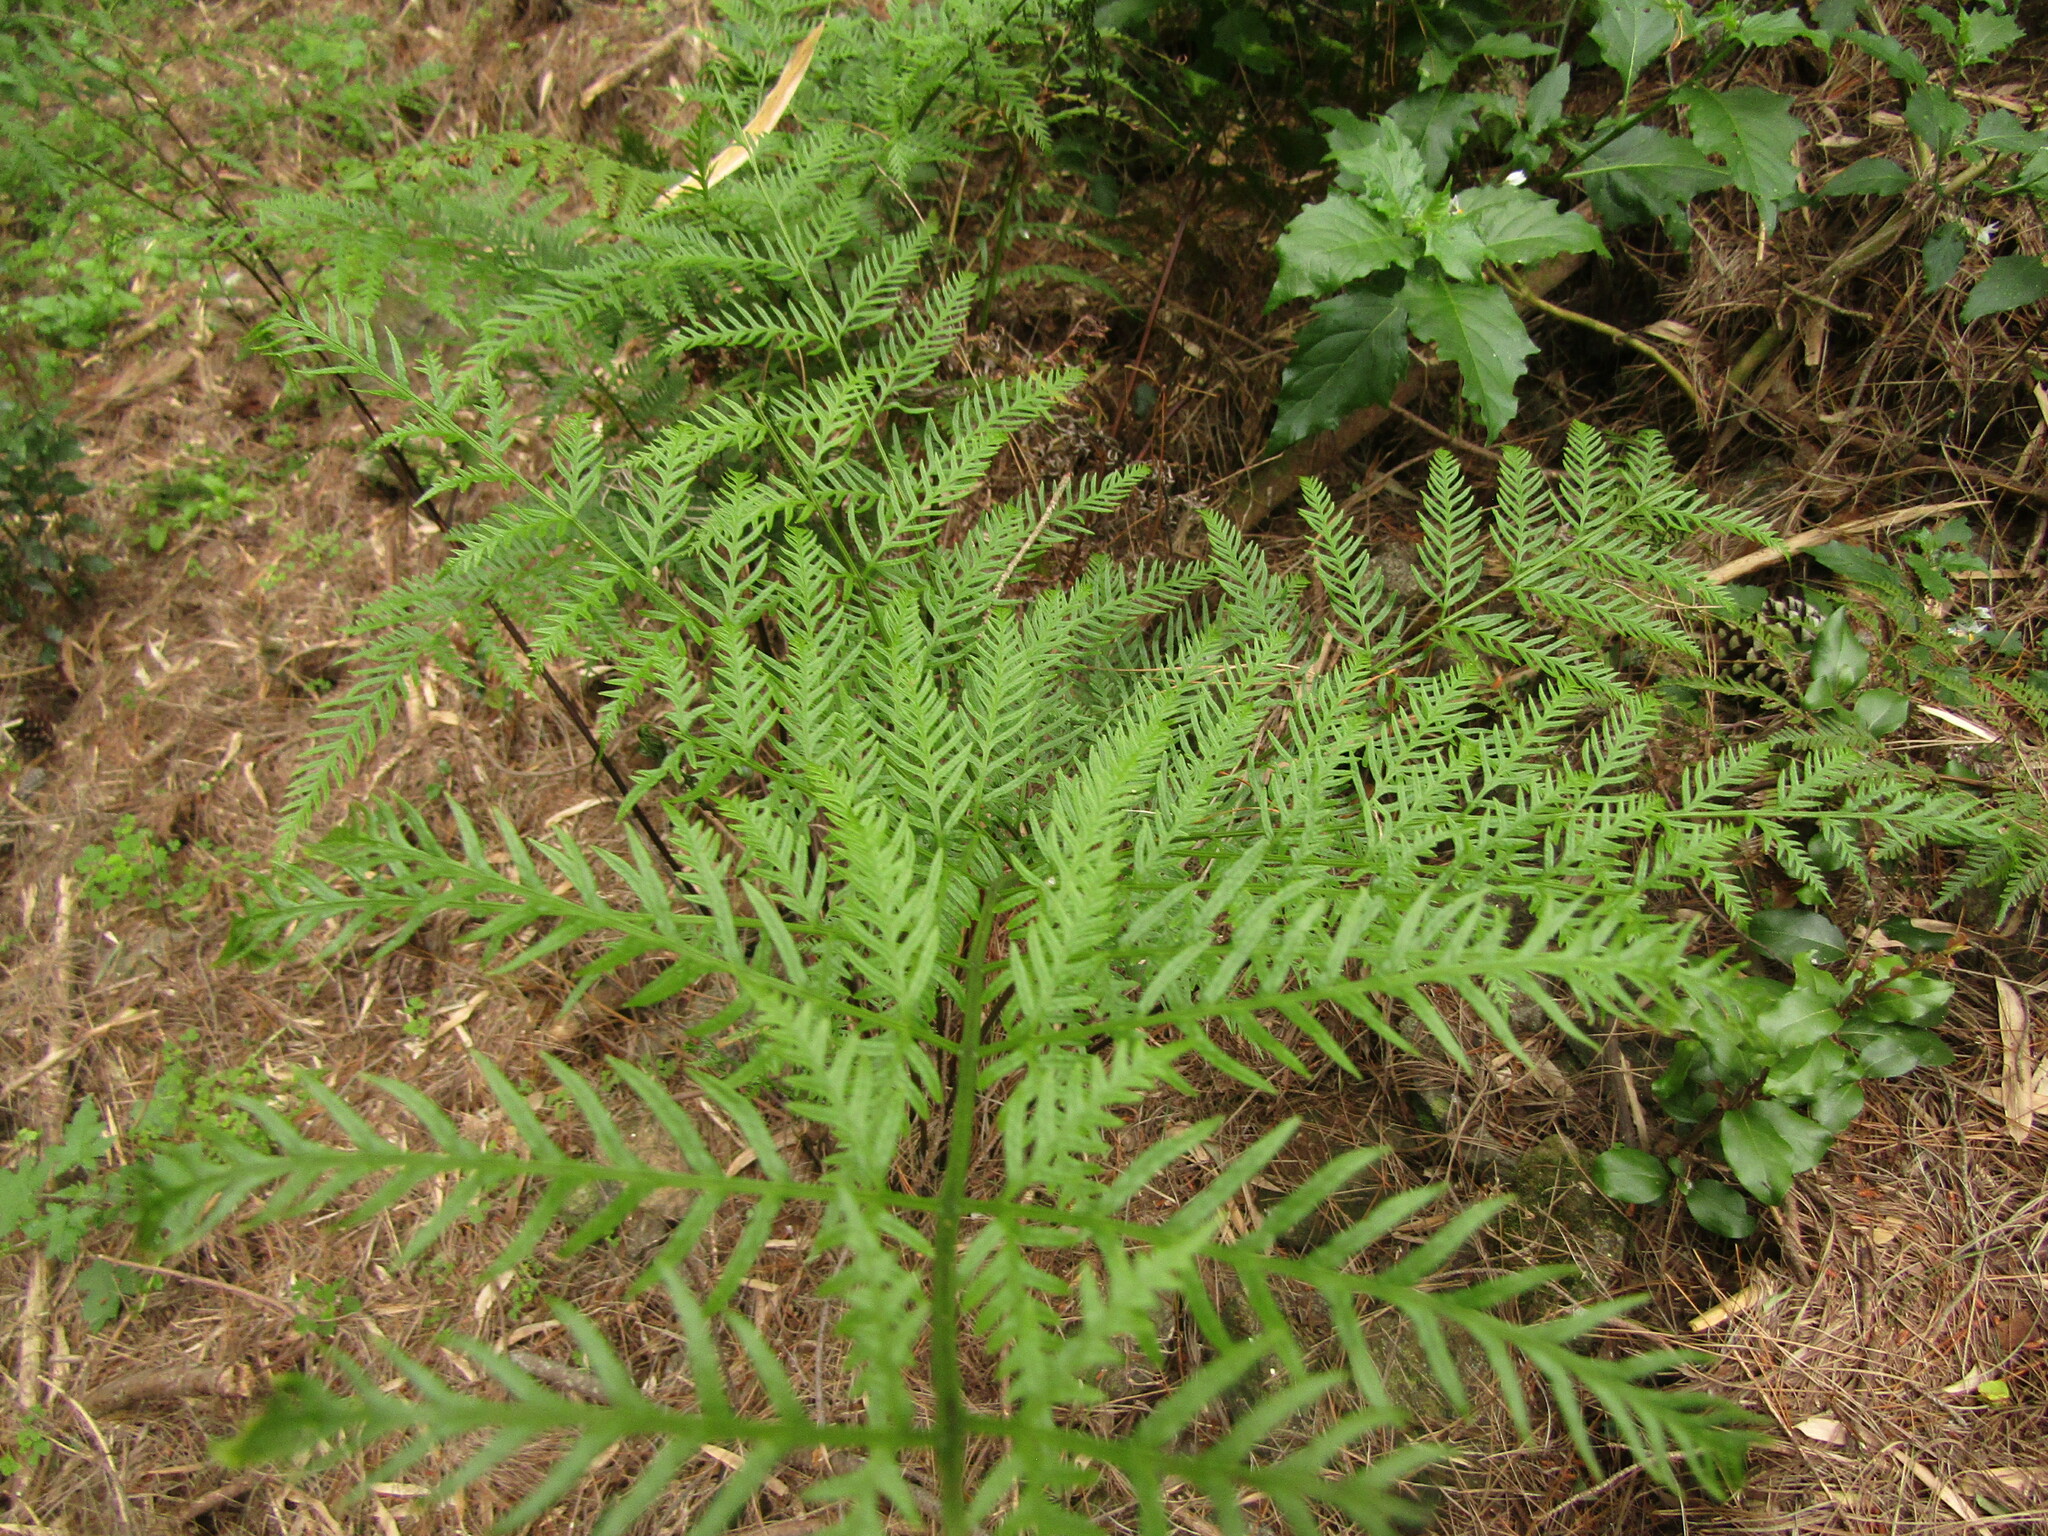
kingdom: Plantae
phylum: Tracheophyta
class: Polypodiopsida
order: Polypodiales
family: Pteridaceae
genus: Pteris
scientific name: Pteris chilensis
